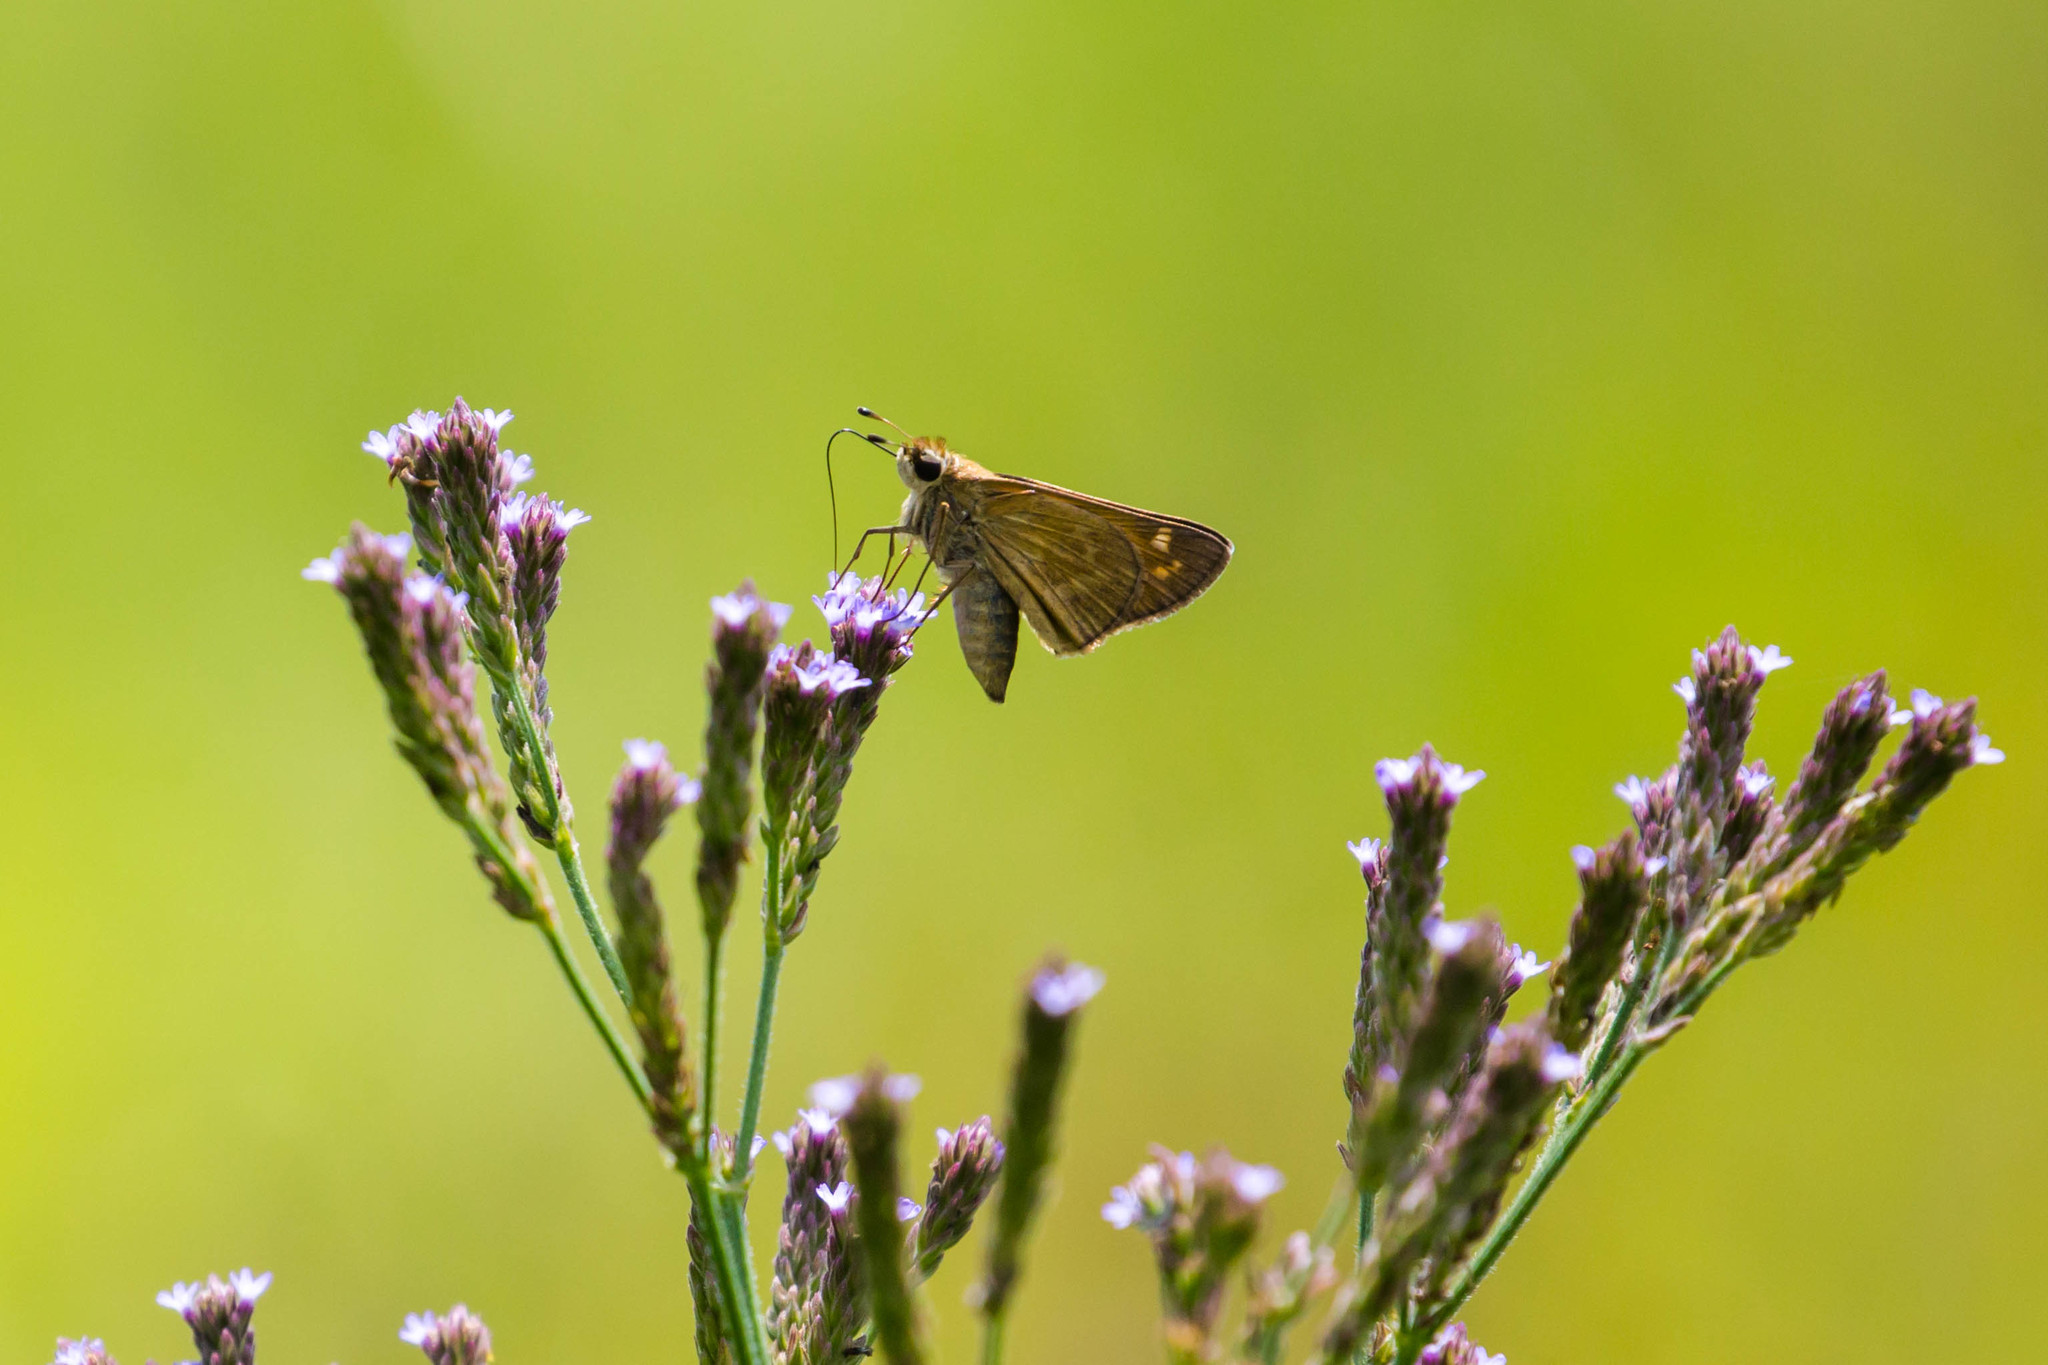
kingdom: Animalia
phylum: Arthropoda
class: Insecta
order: Lepidoptera
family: Hesperiidae
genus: Atalopedes
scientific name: Atalopedes
